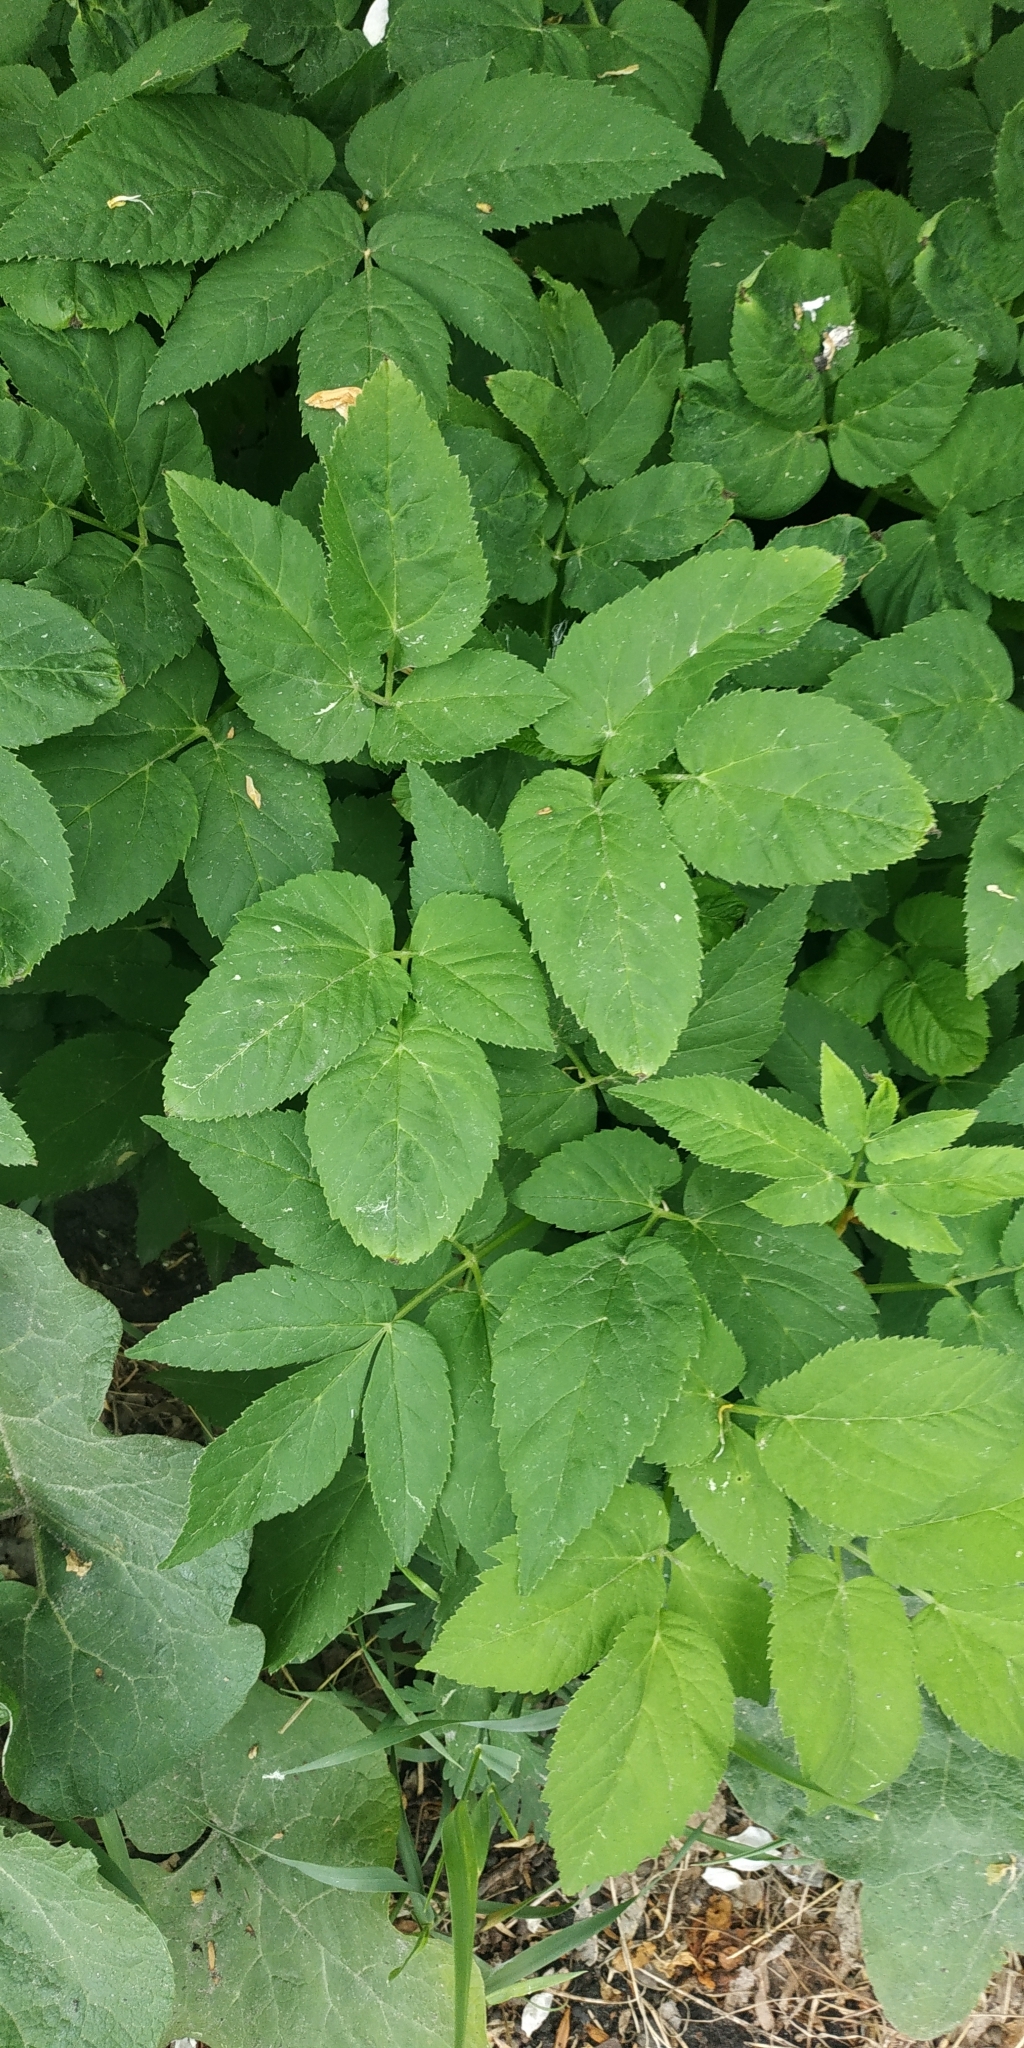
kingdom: Plantae
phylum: Tracheophyta
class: Magnoliopsida
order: Apiales
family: Apiaceae
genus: Aegopodium
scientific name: Aegopodium podagraria
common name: Ground-elder
